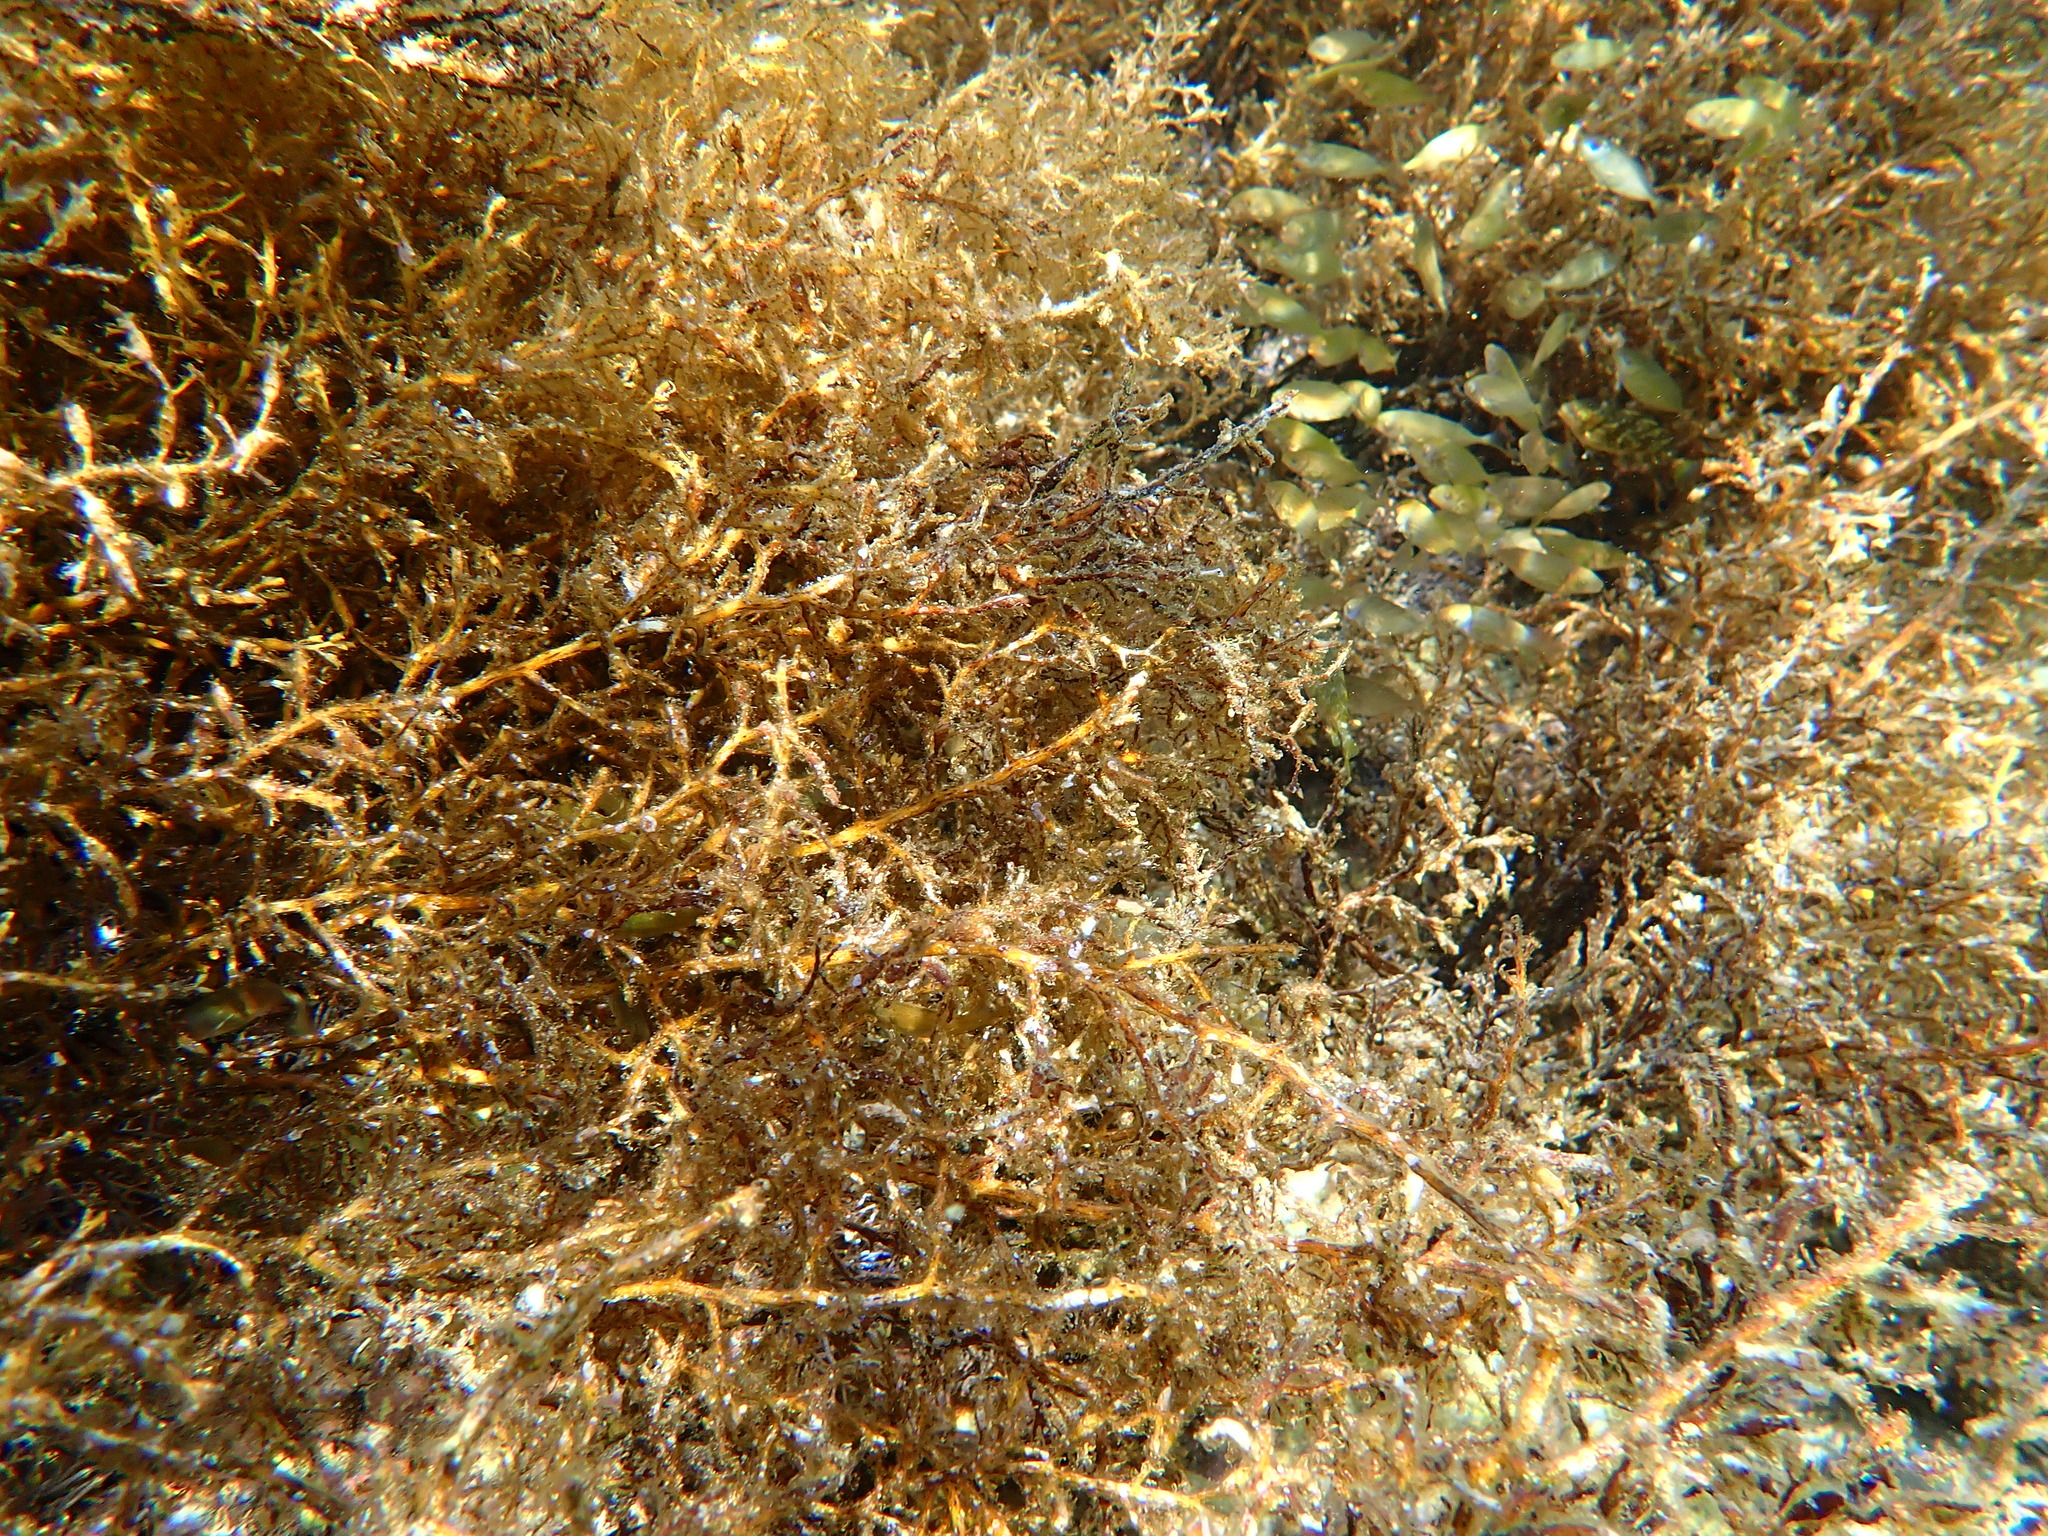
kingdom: Animalia
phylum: Chordata
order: Perciformes
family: Siganidae
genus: Siganus
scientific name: Siganus
